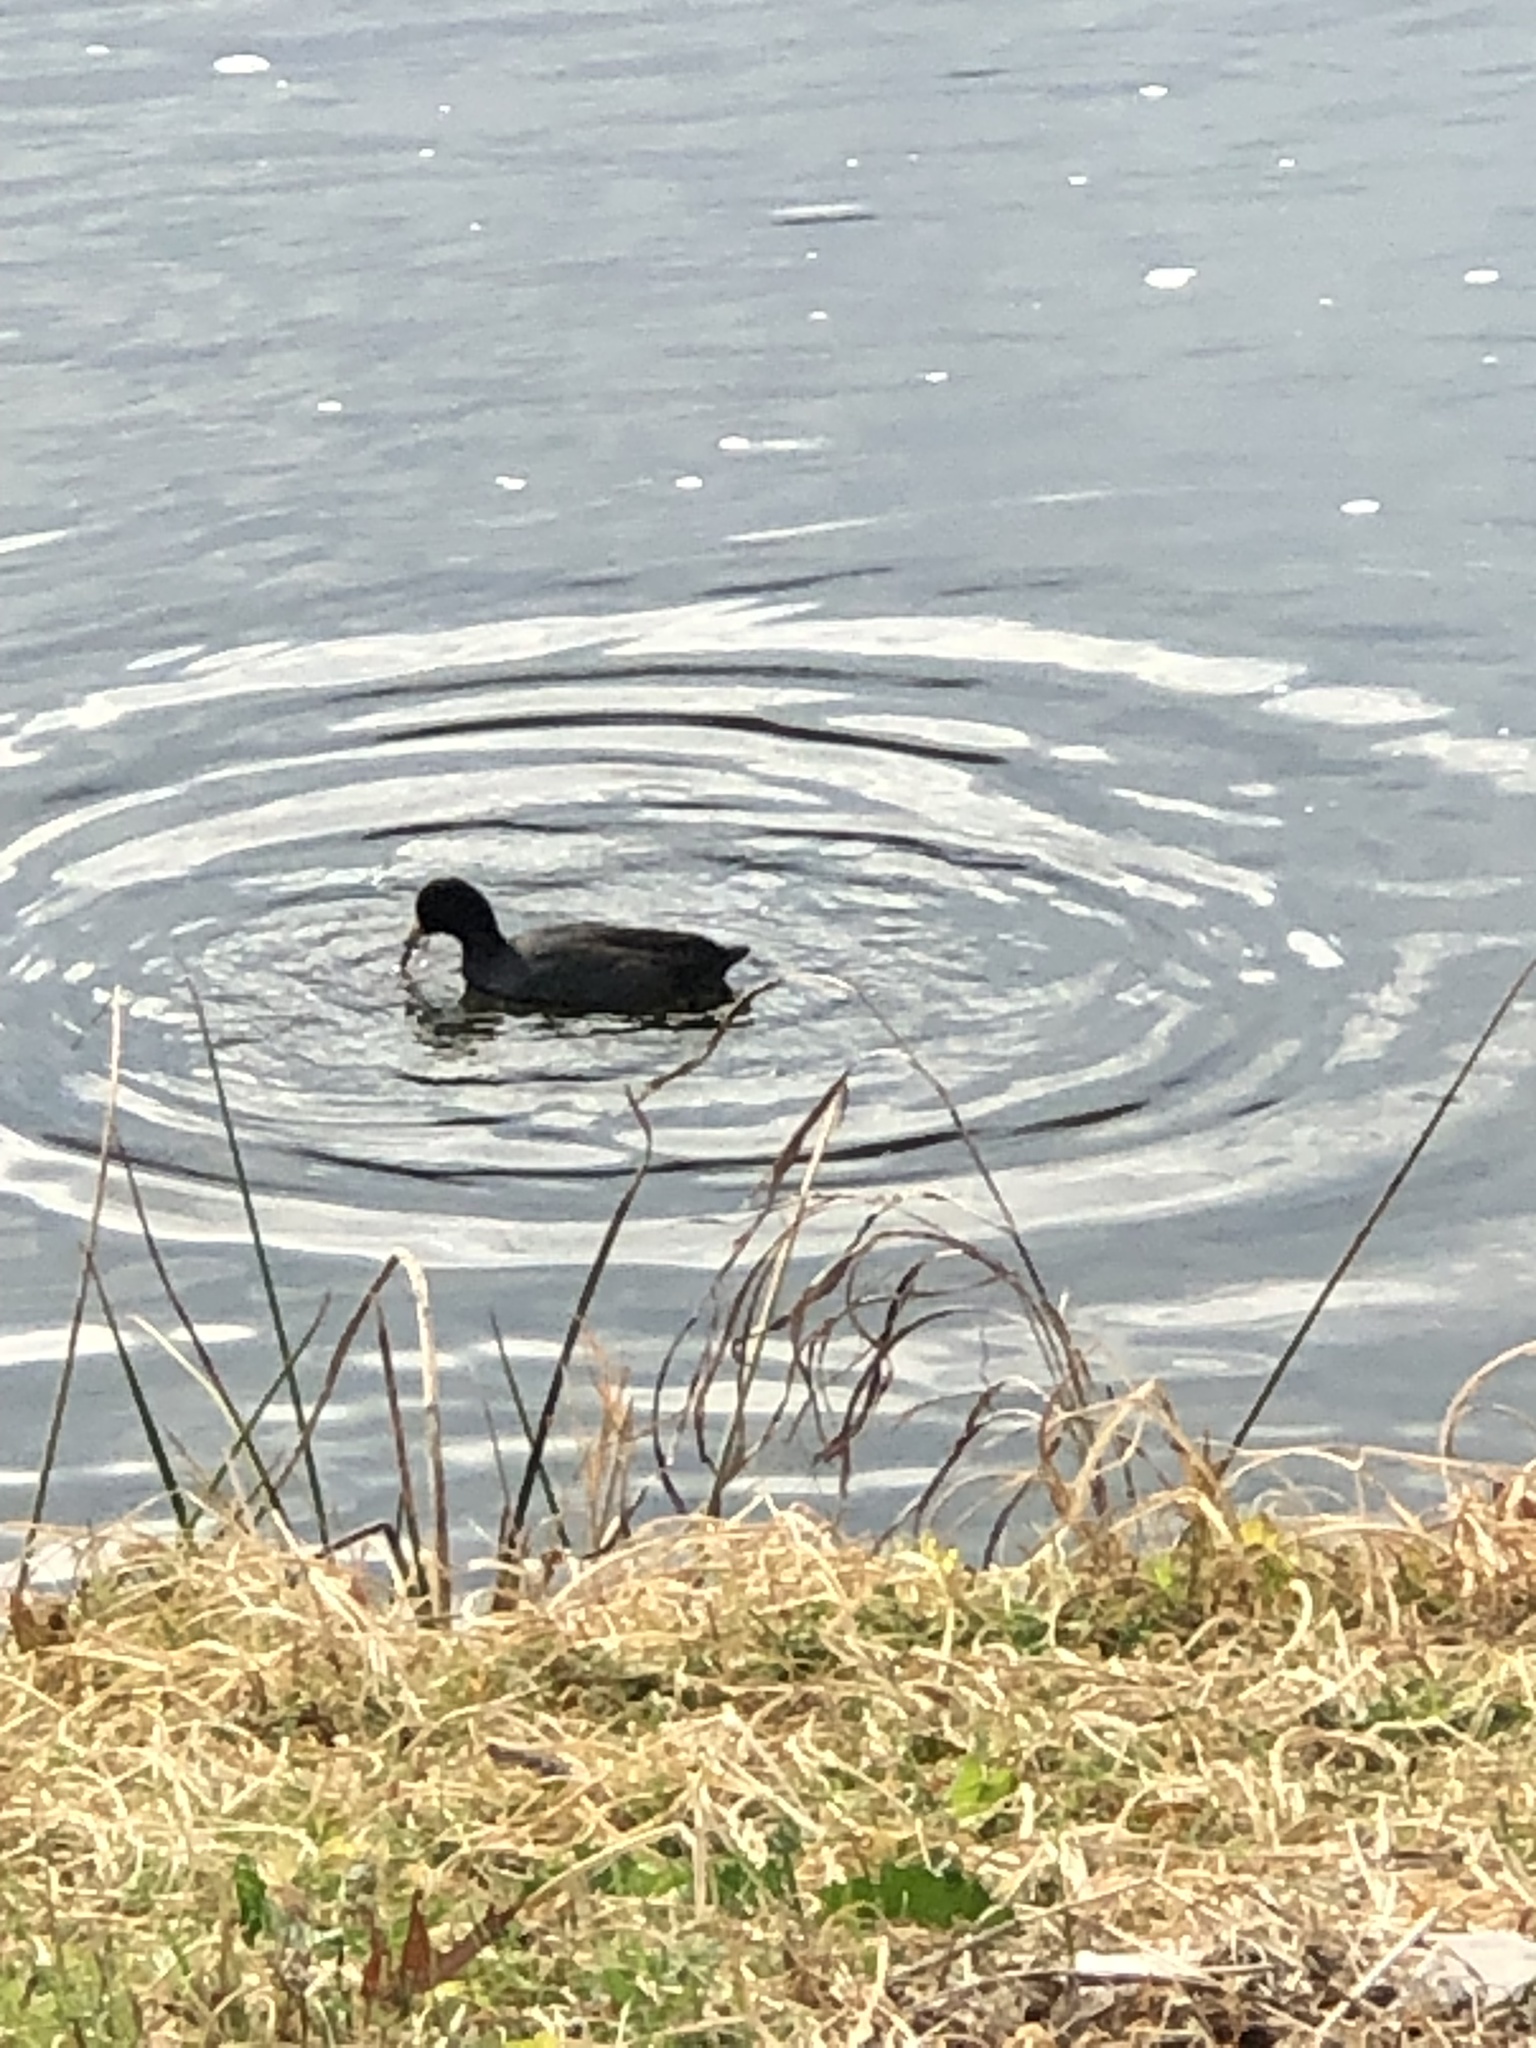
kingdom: Animalia
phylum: Chordata
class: Aves
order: Gruiformes
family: Rallidae
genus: Fulica
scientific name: Fulica americana
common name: American coot
